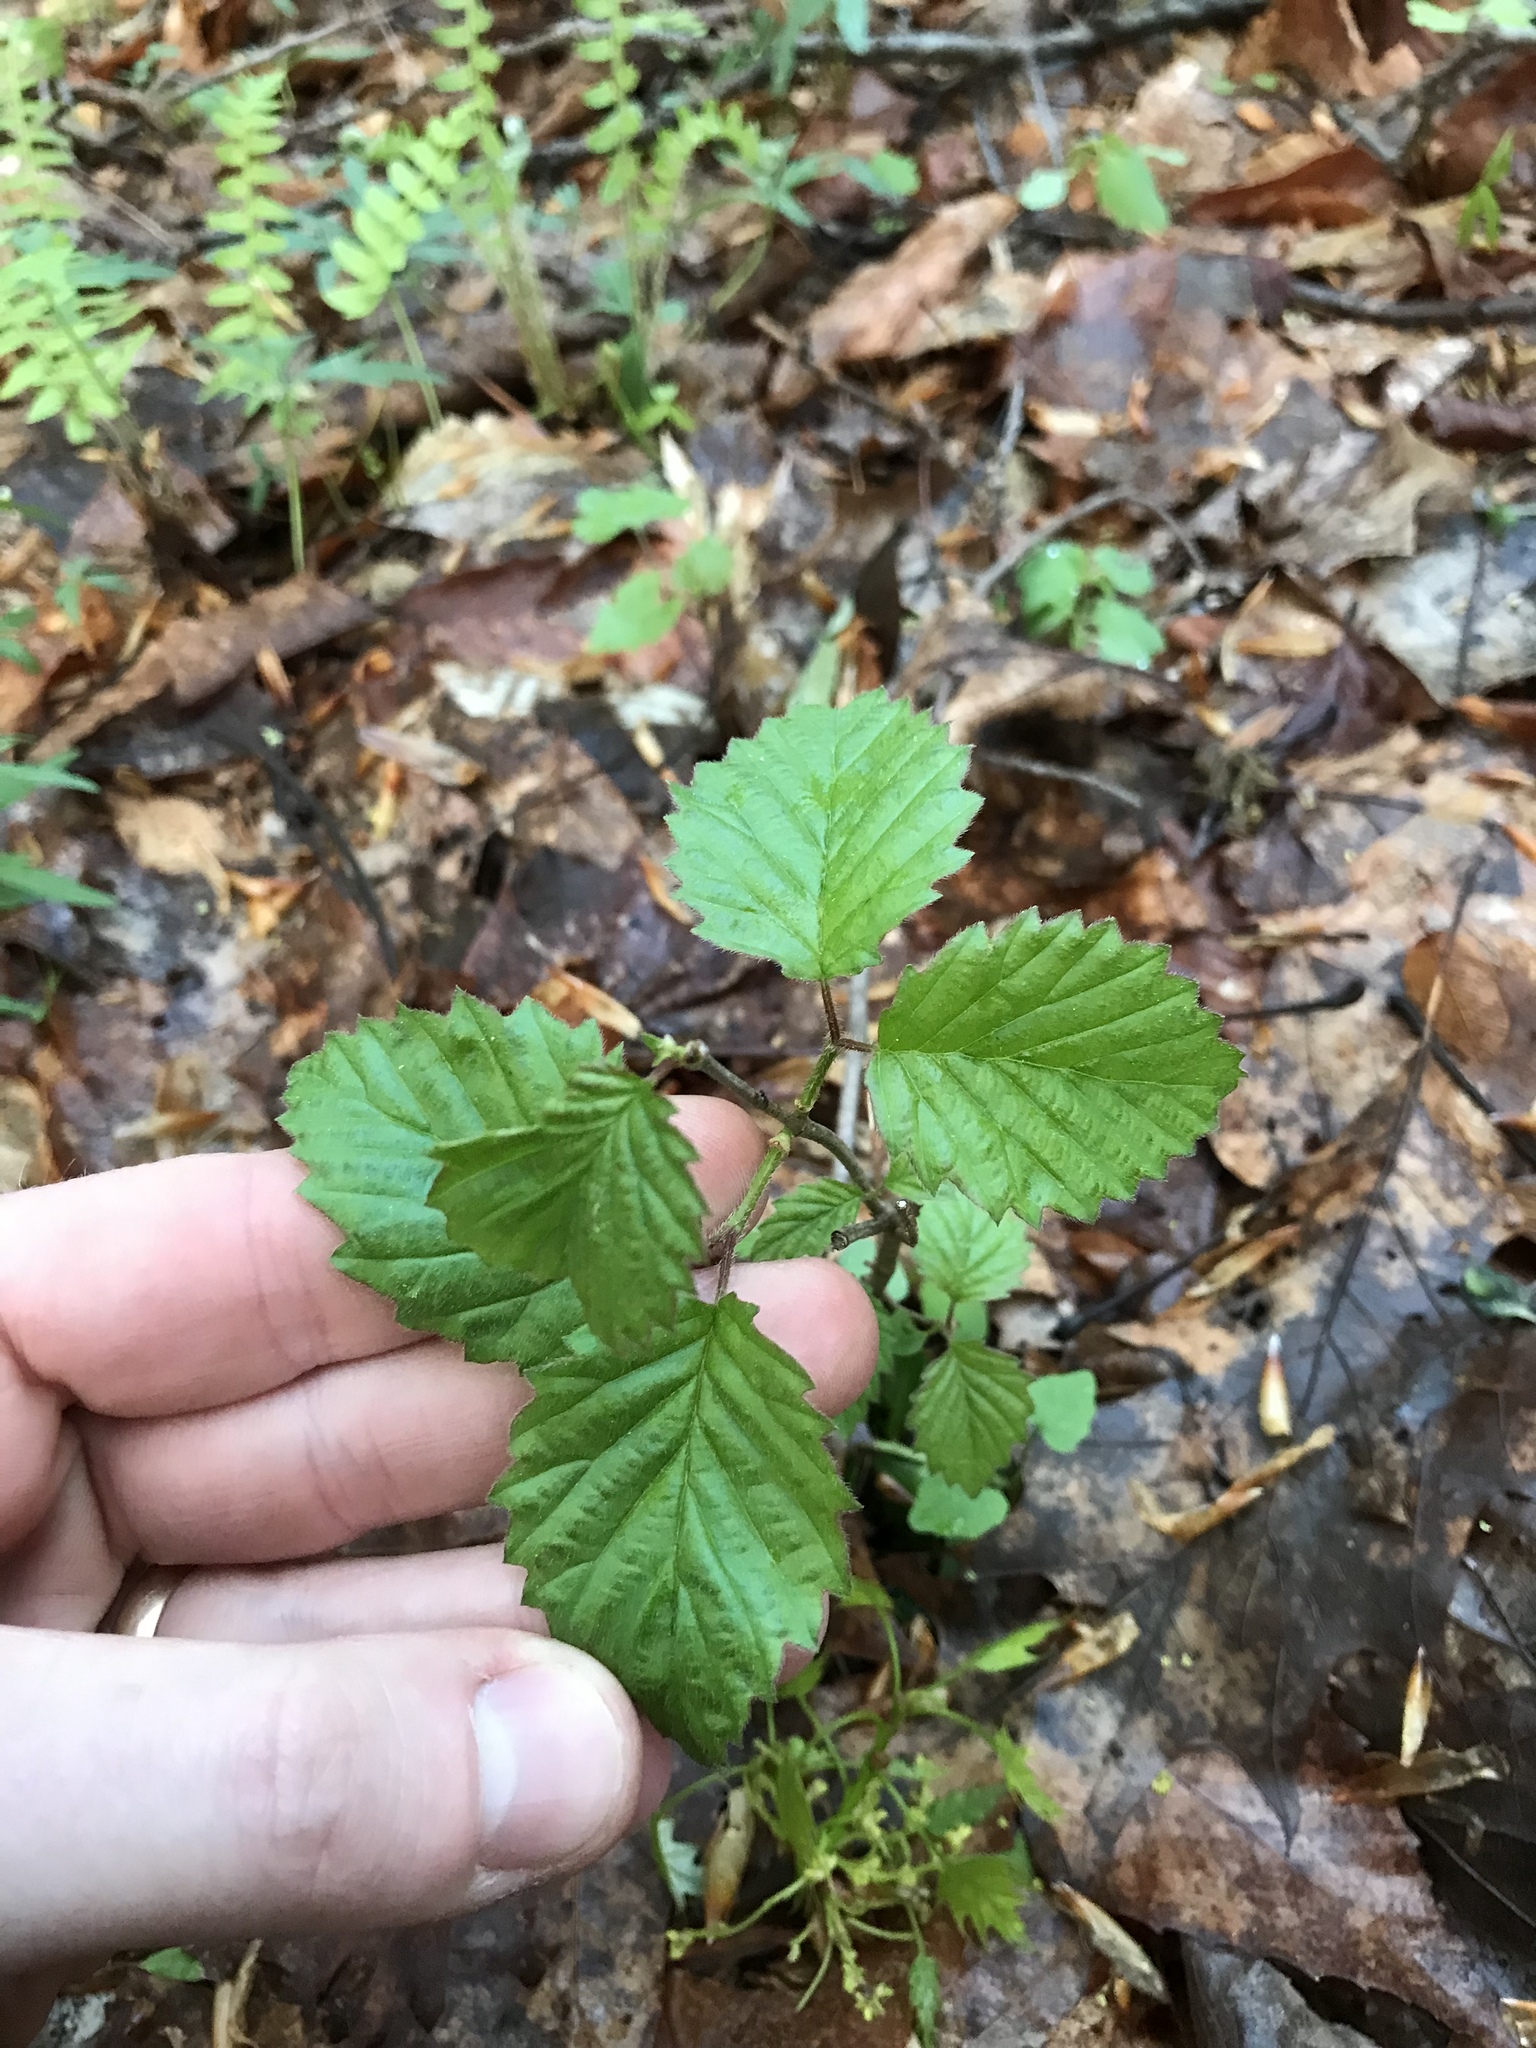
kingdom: Plantae
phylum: Tracheophyta
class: Magnoliopsida
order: Dipsacales
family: Viburnaceae
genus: Viburnum
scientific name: Viburnum dentatum
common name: Arrow-wood
